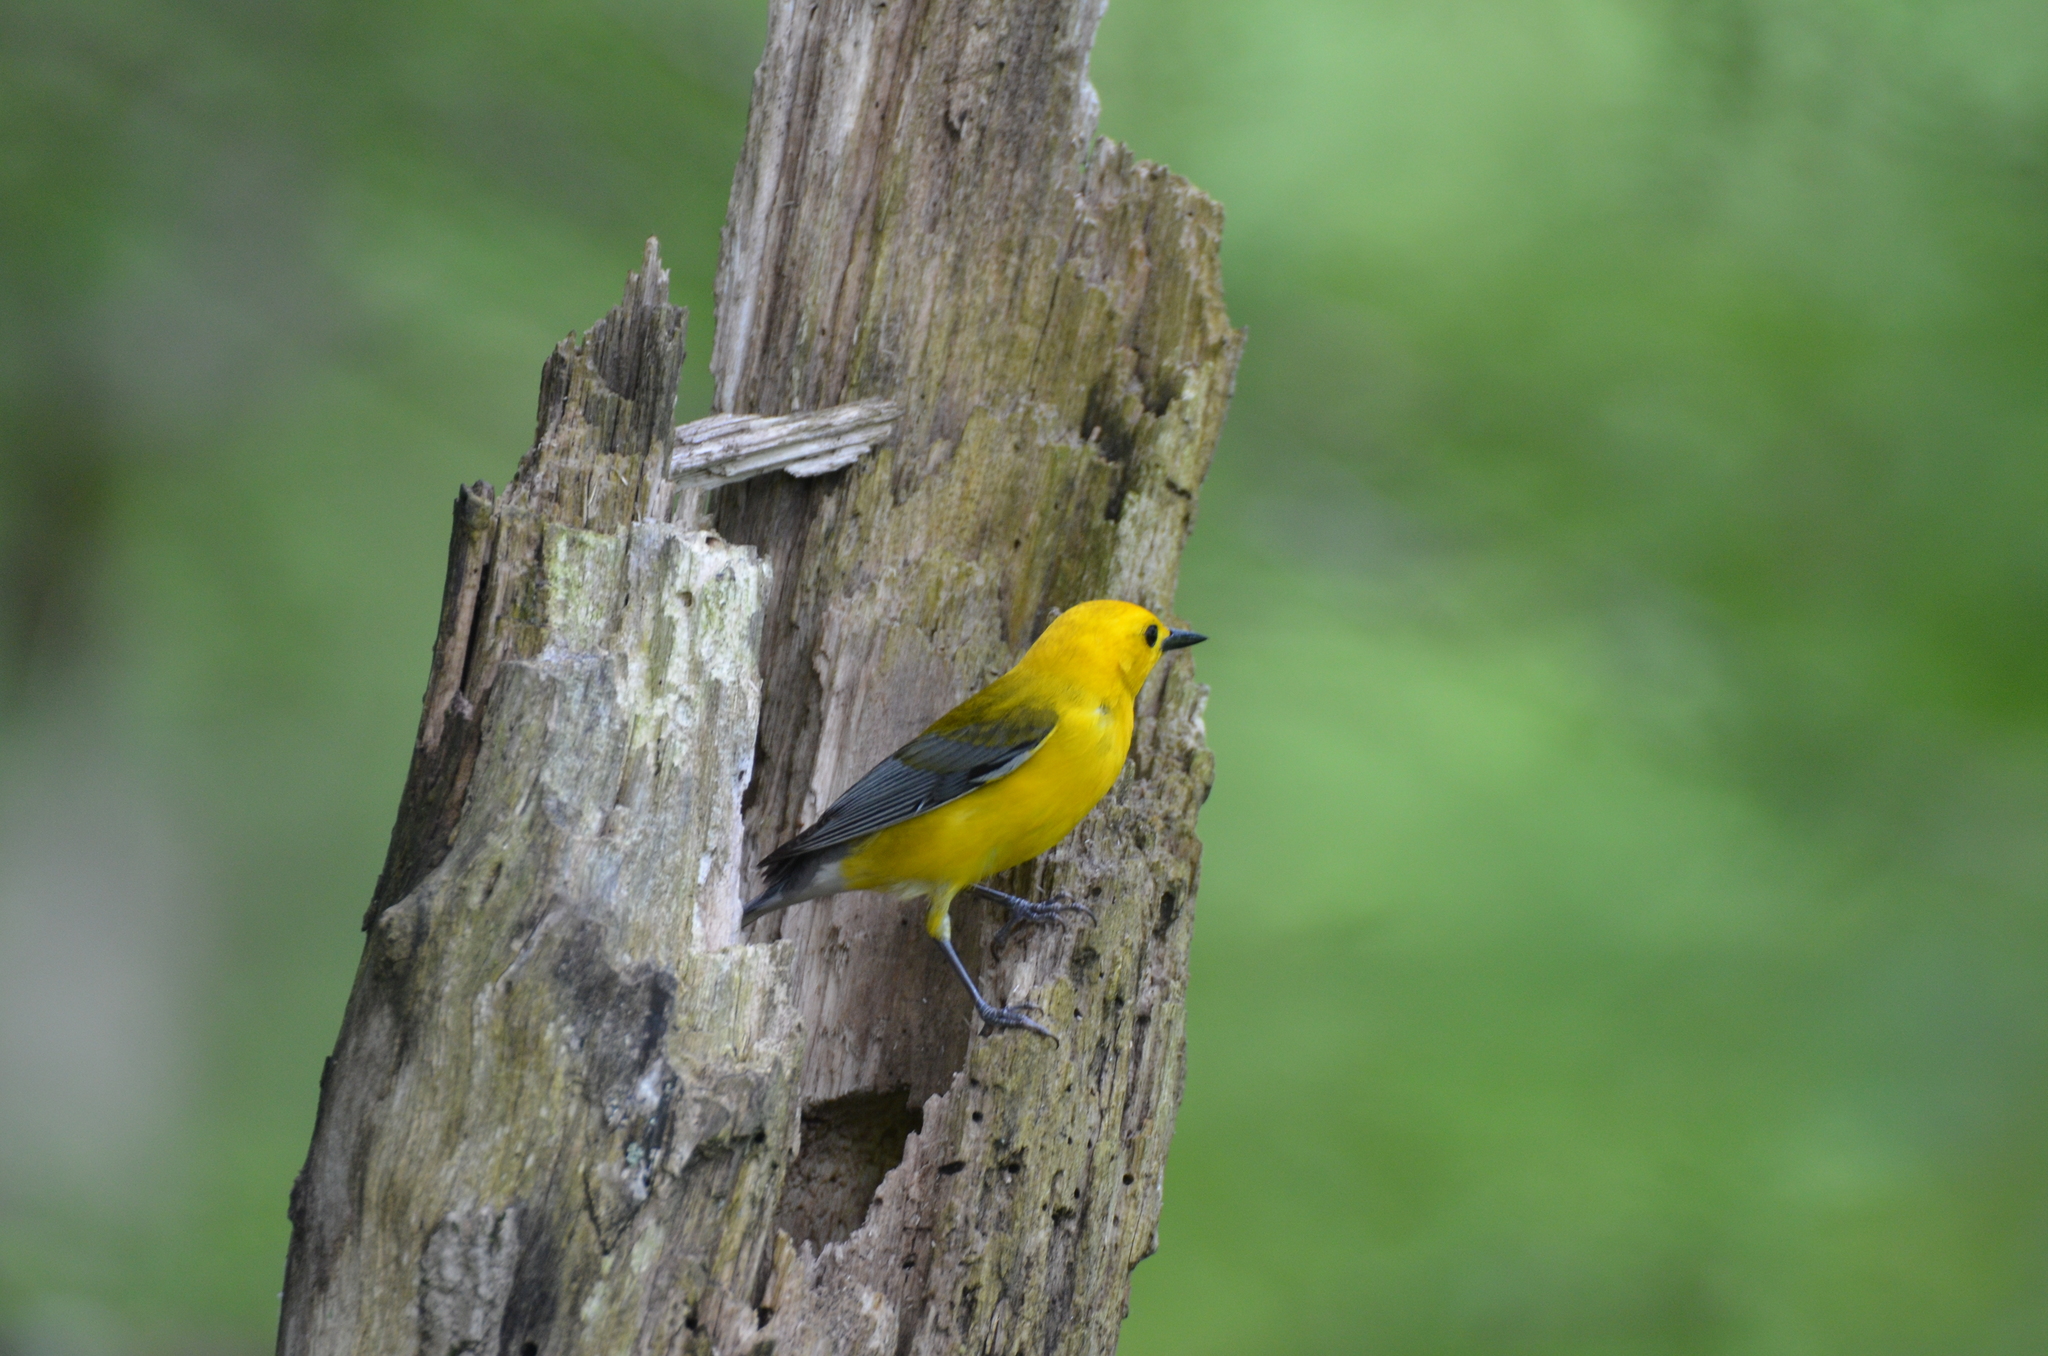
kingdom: Animalia
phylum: Chordata
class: Aves
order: Passeriformes
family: Parulidae
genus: Protonotaria
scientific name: Protonotaria citrea
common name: Prothonotary warbler
